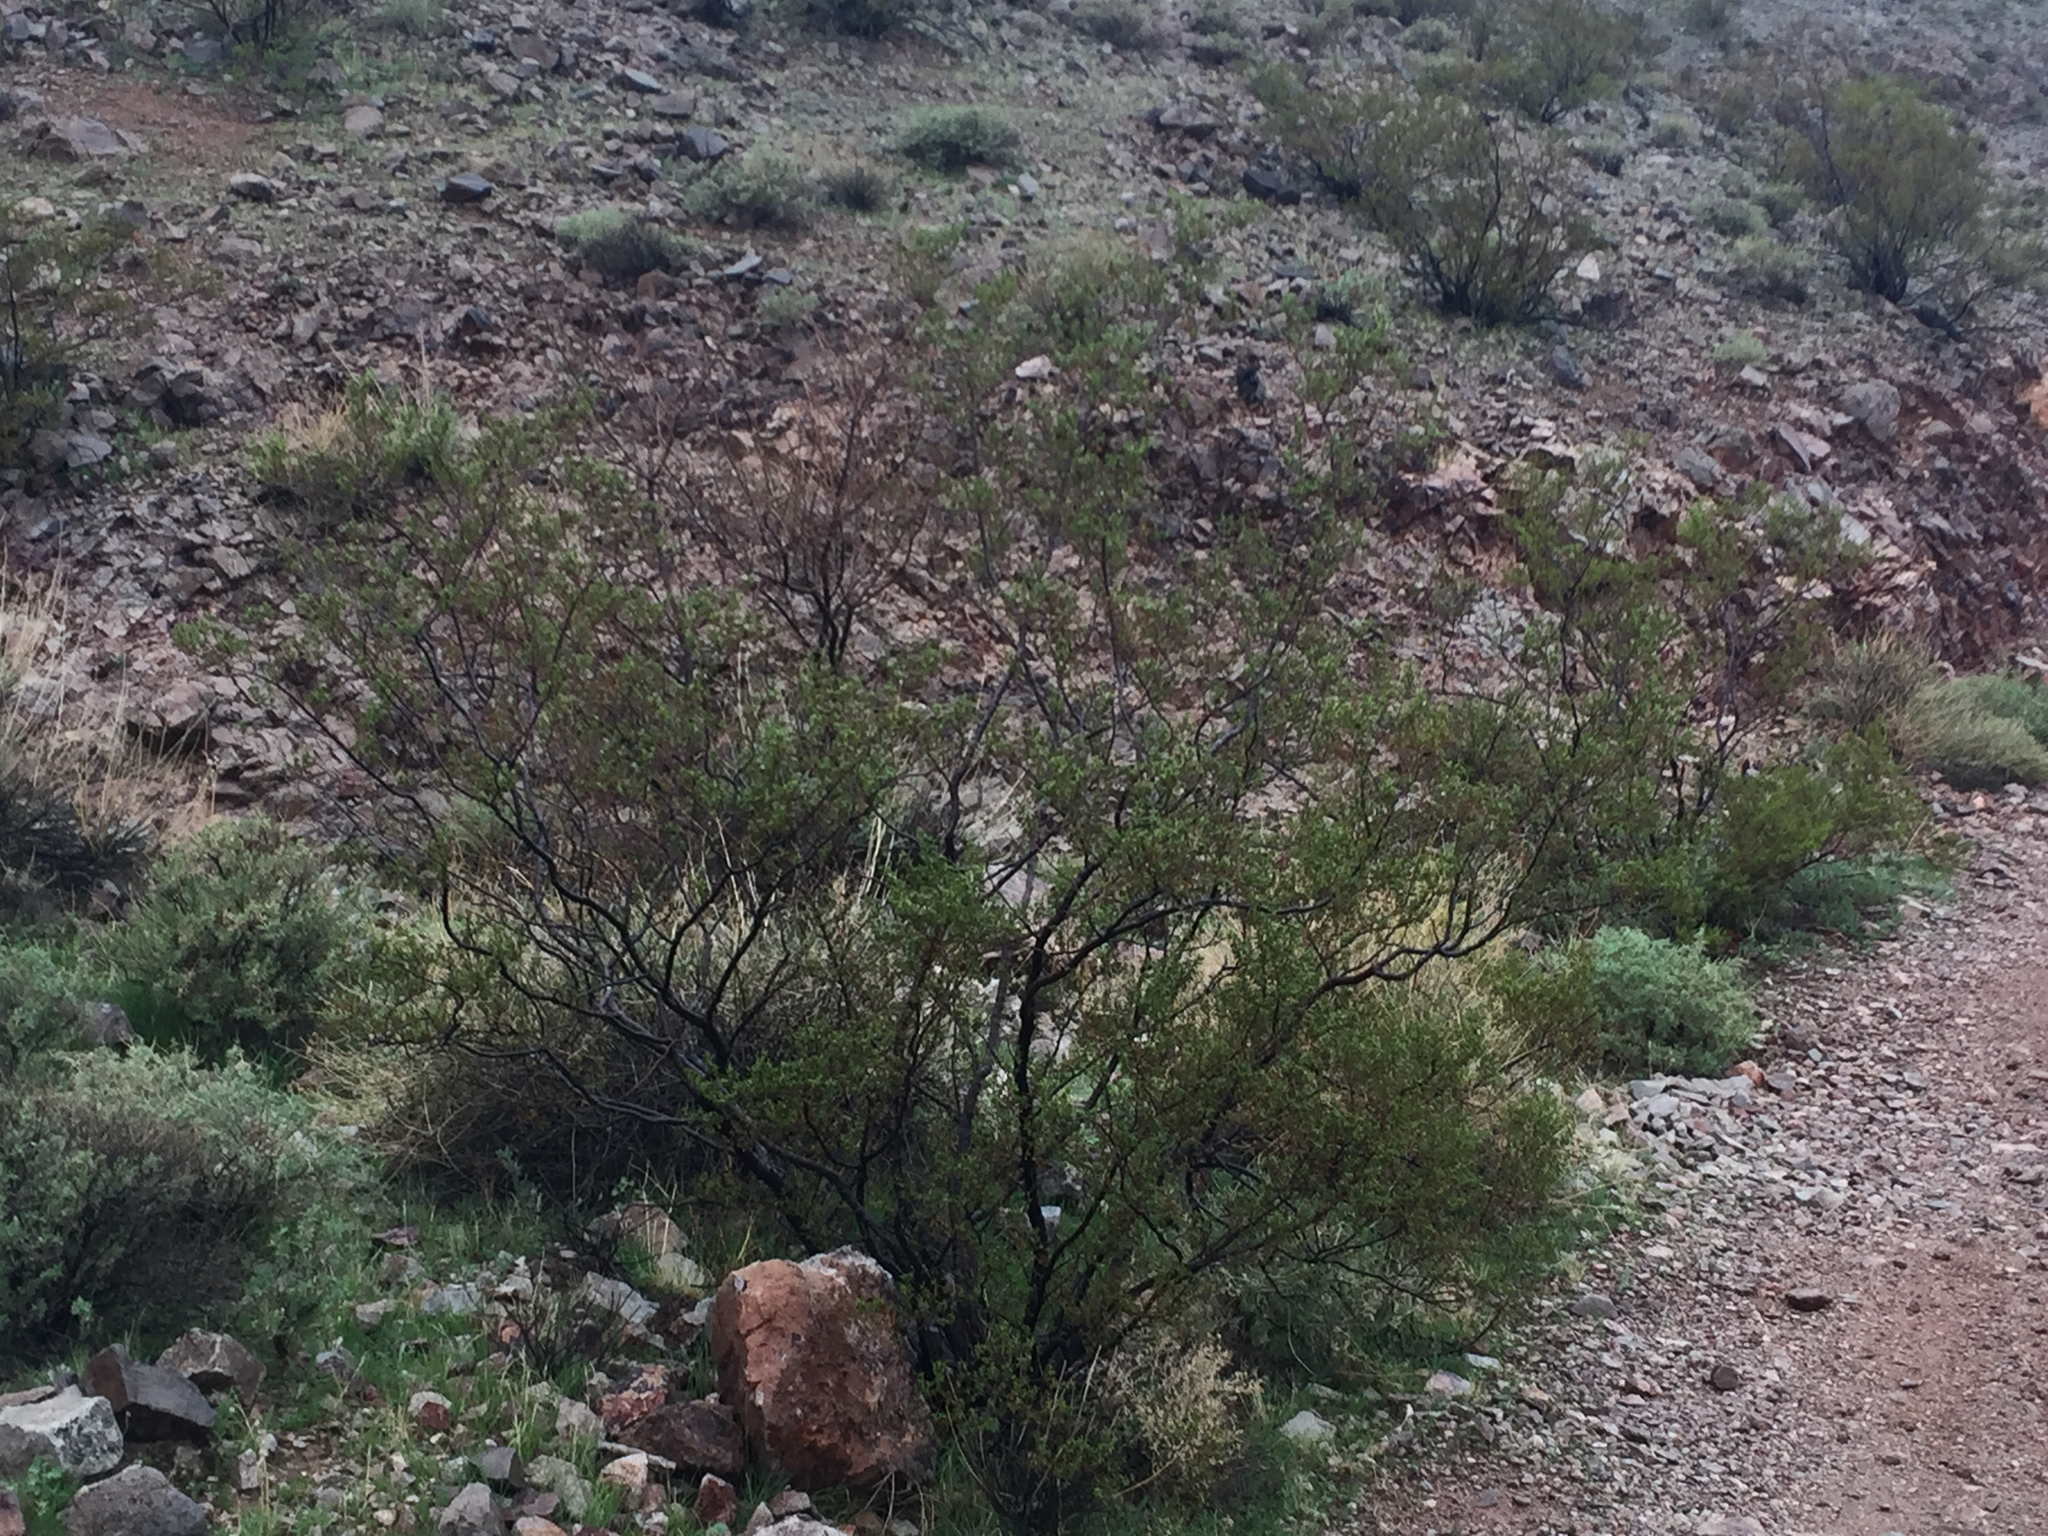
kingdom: Plantae
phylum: Tracheophyta
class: Magnoliopsida
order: Zygophyllales
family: Zygophyllaceae
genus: Larrea
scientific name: Larrea tridentata
